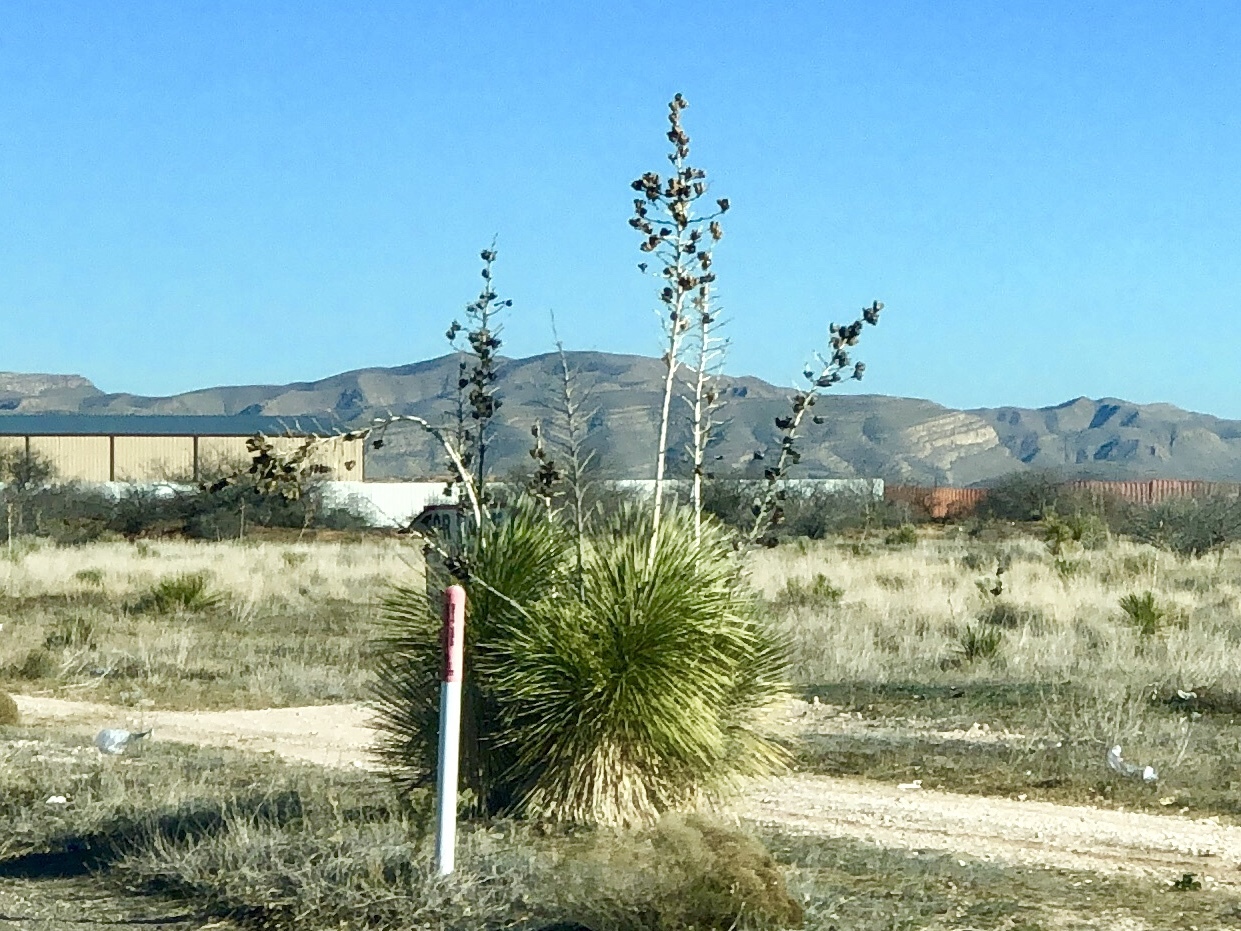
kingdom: Plantae
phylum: Tracheophyta
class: Liliopsida
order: Asparagales
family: Asparagaceae
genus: Yucca
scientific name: Yucca elata
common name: Palmella
